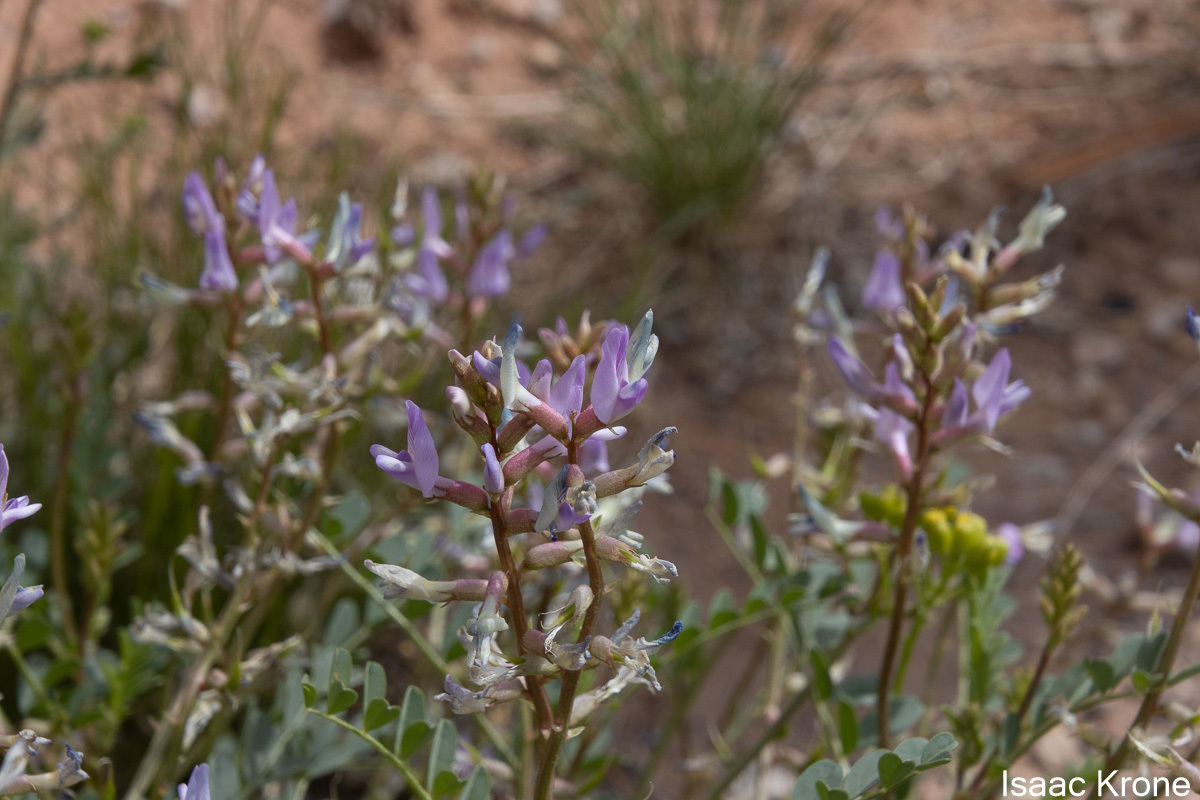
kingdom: Plantae
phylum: Tracheophyta
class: Magnoliopsida
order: Fabales
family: Fabaceae
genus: Astragalus
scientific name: Astragalus preussii
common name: Preuss's milk-vetch
